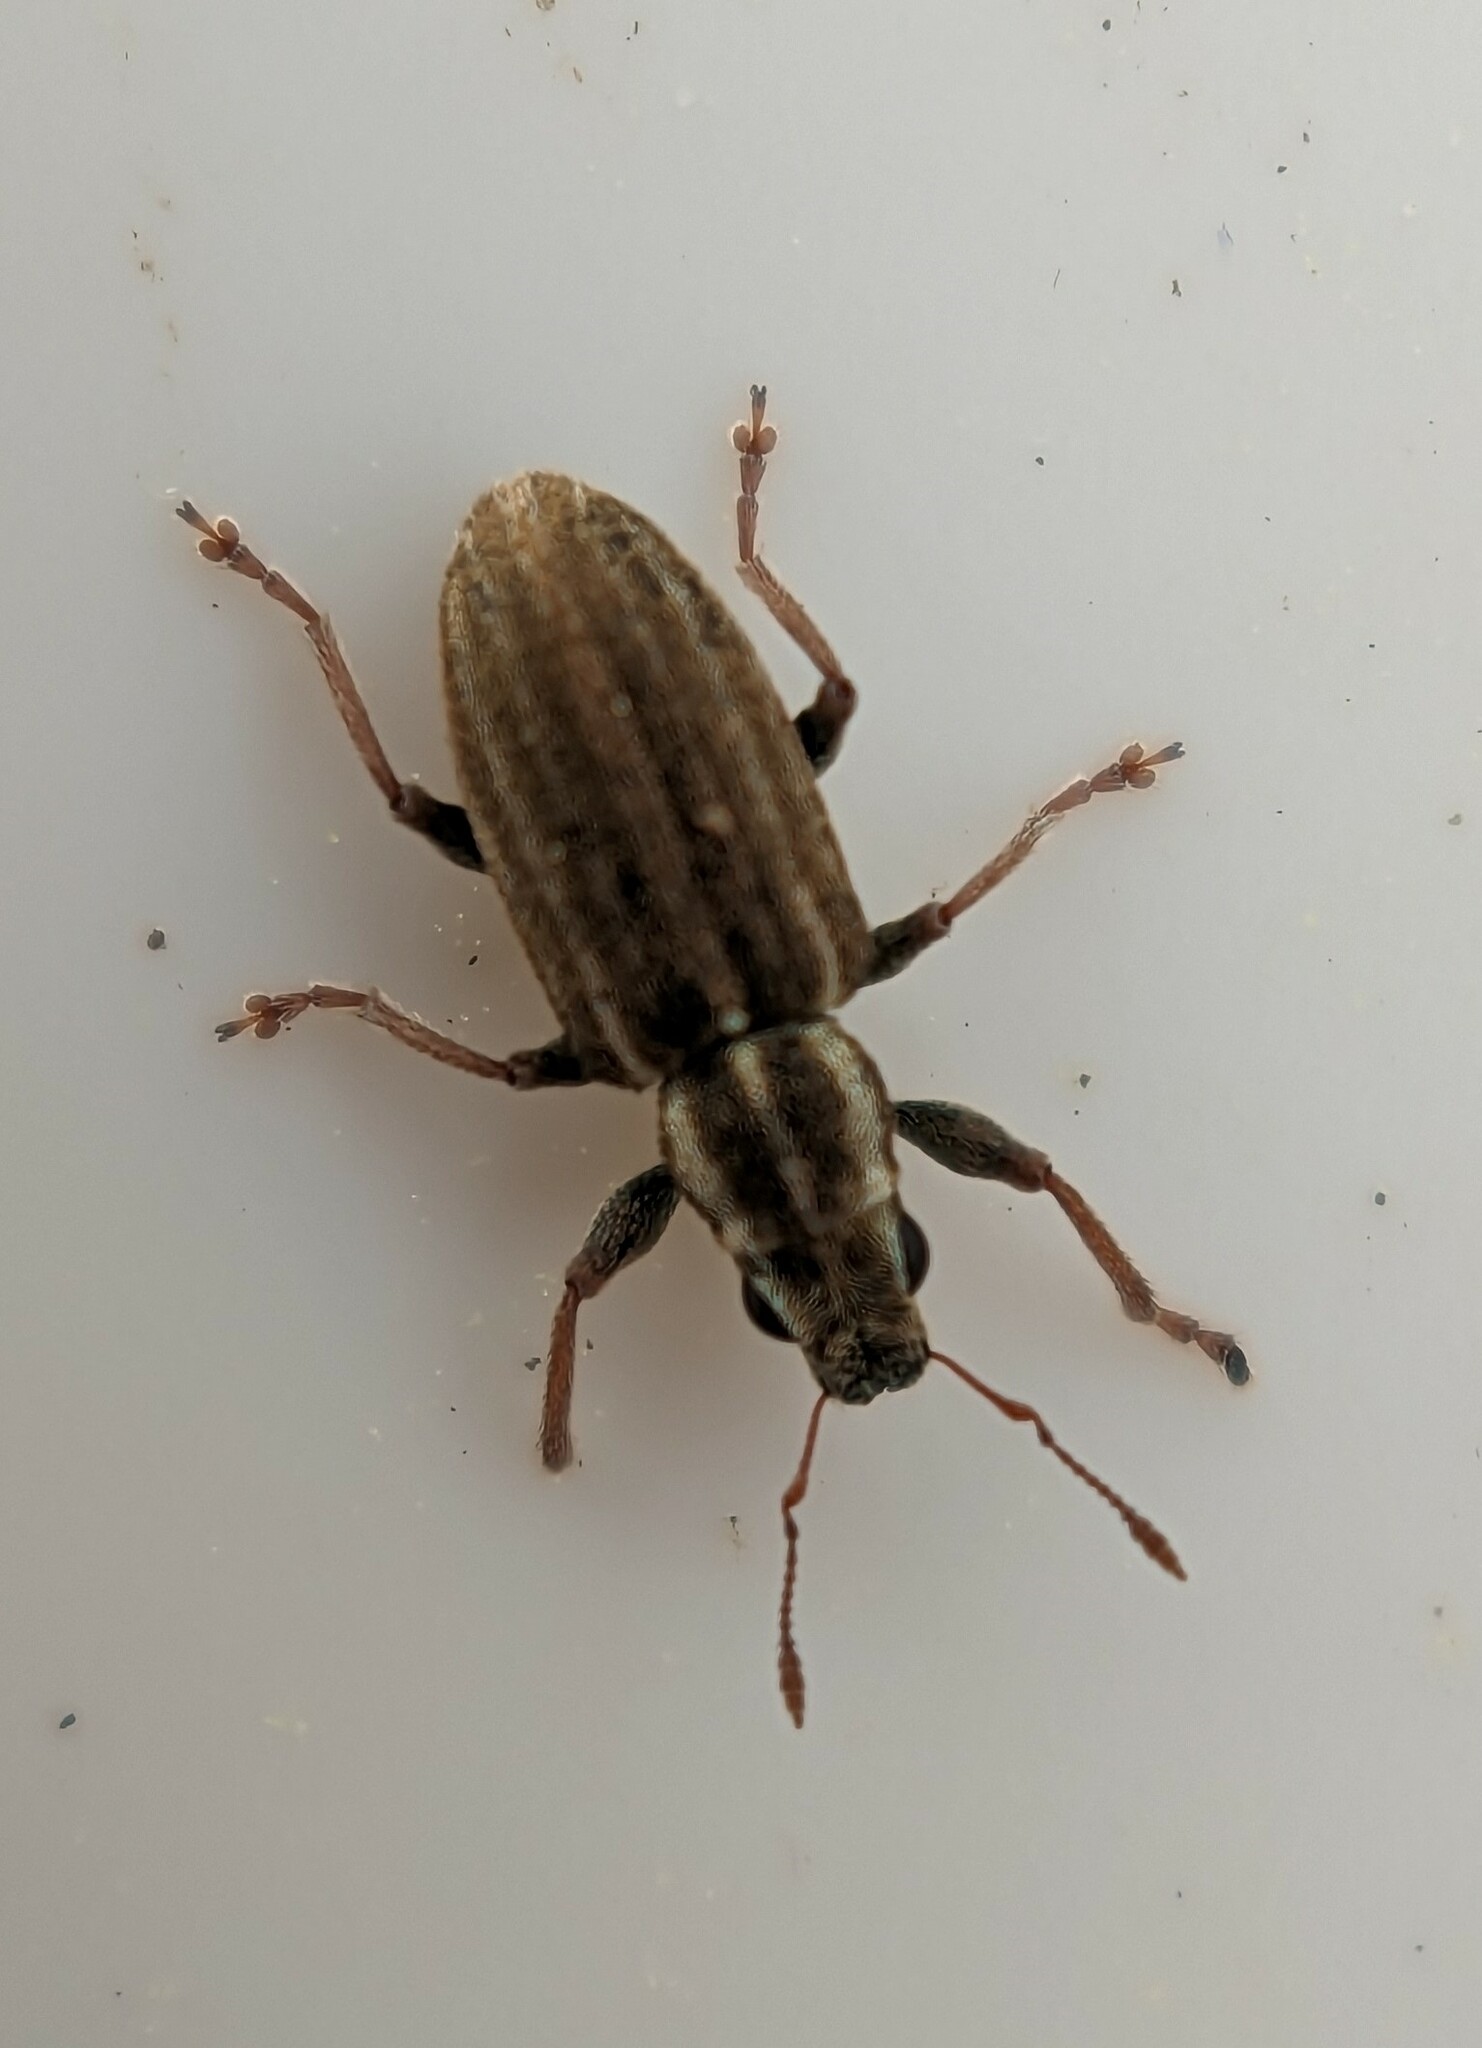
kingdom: Animalia
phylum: Arthropoda
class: Insecta
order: Coleoptera
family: Curculionidae
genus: Sitona
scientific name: Sitona lineatus
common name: Weevil
